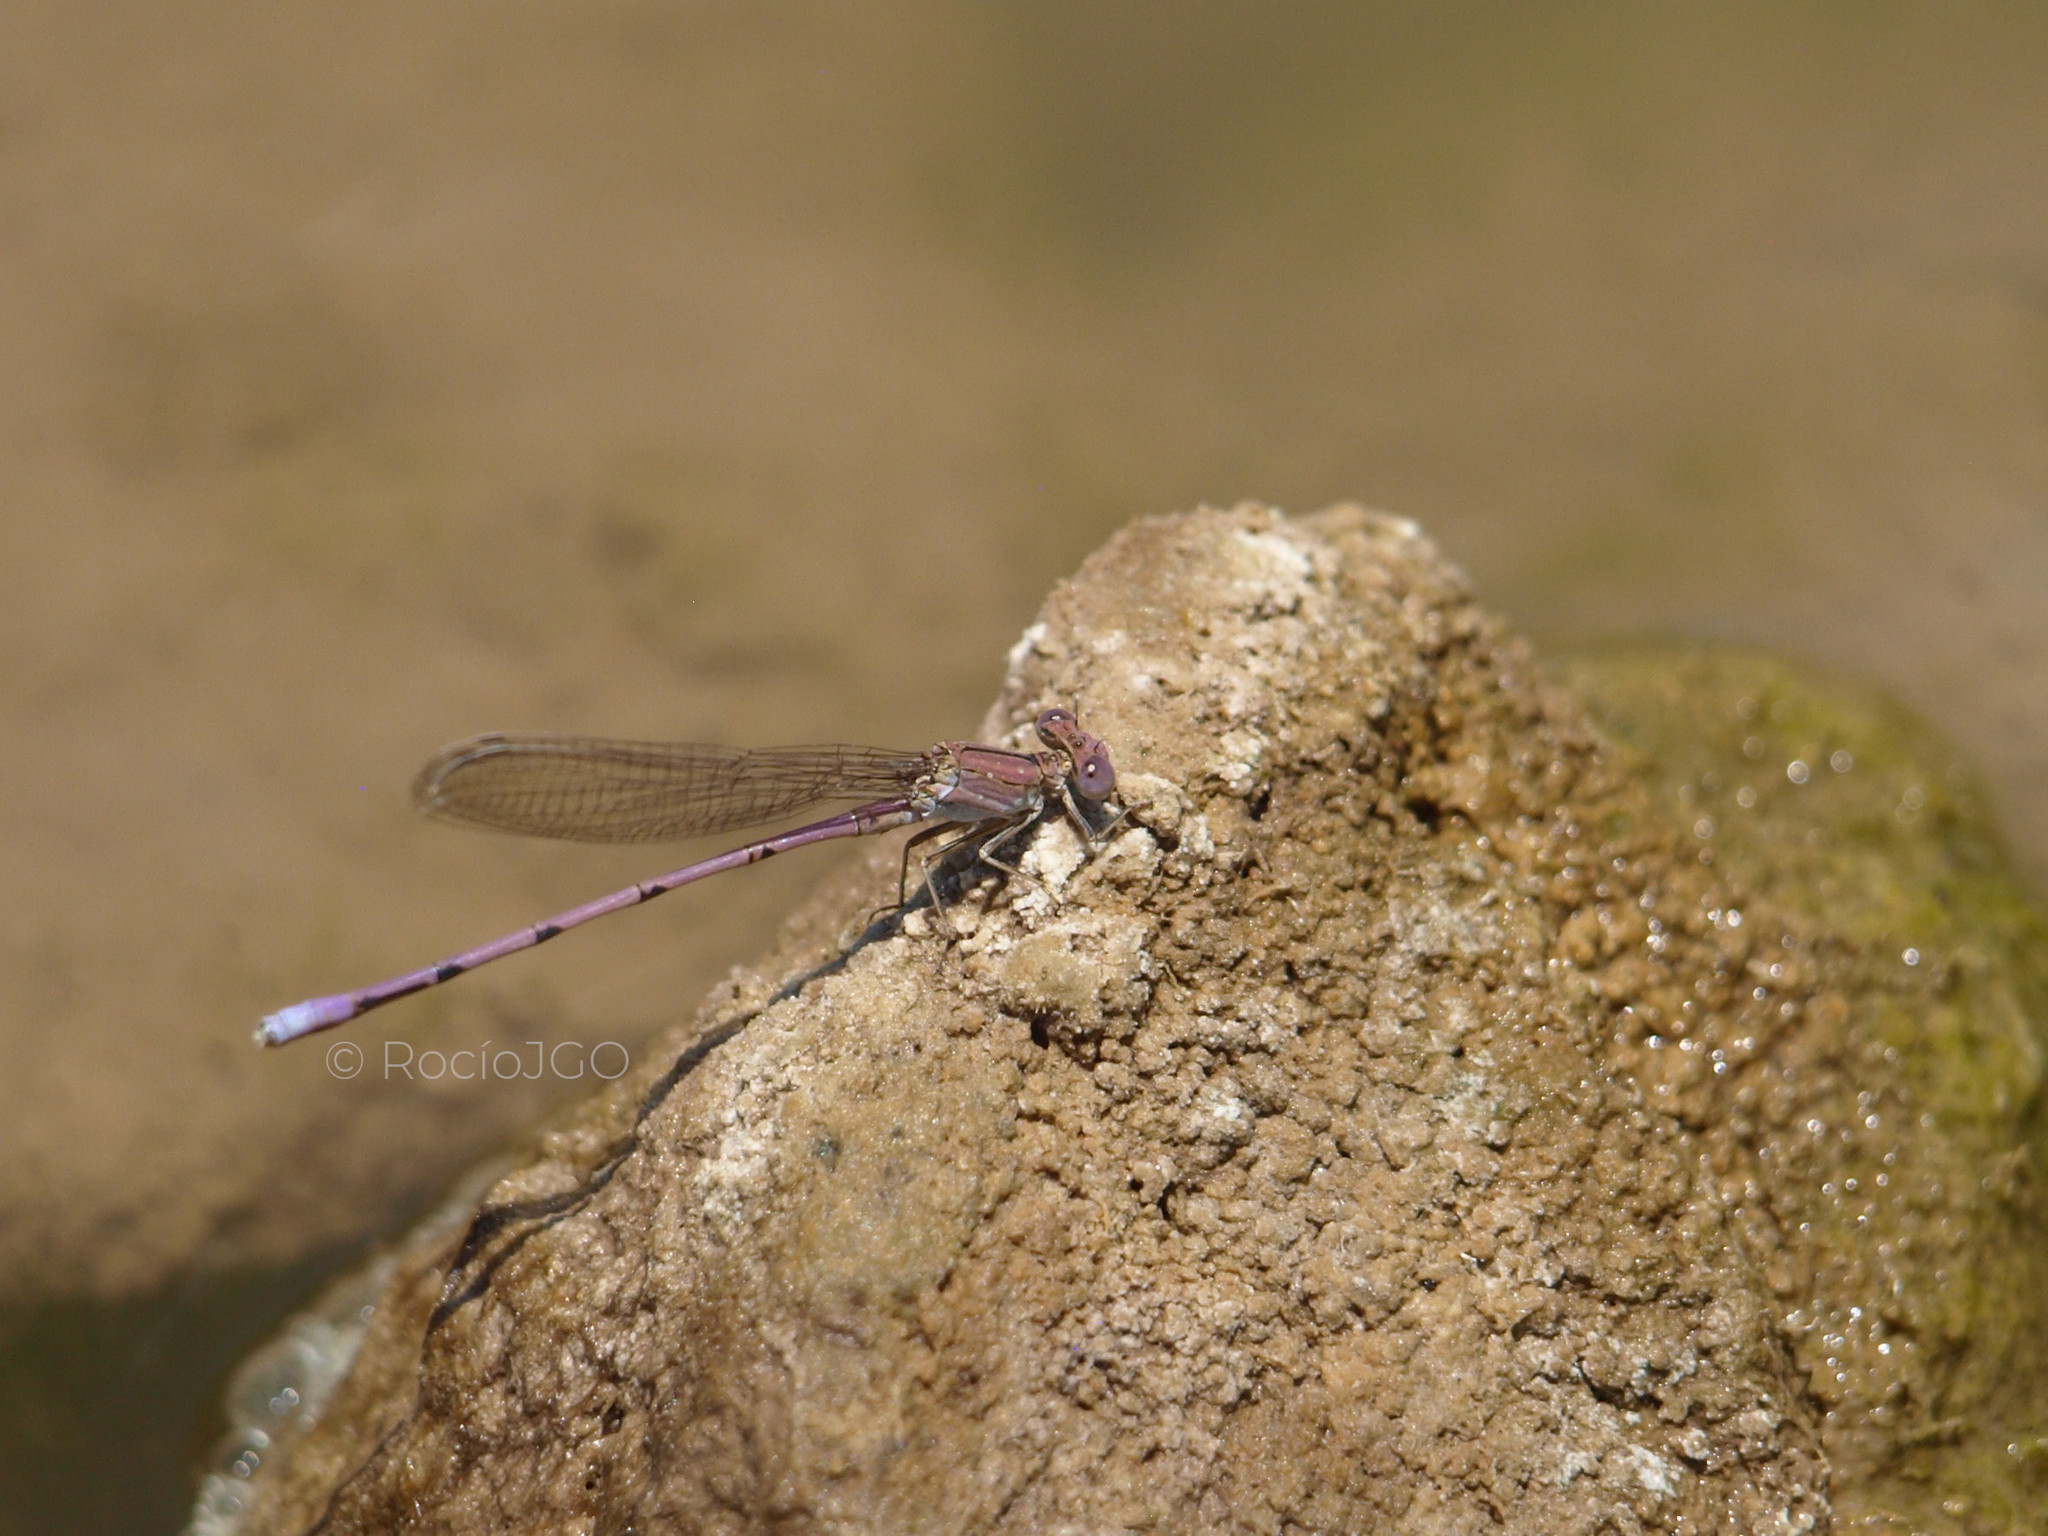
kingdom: Animalia
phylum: Arthropoda
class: Insecta
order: Odonata
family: Coenagrionidae
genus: Argia
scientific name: Argia pallens
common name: Amethyst dancer
